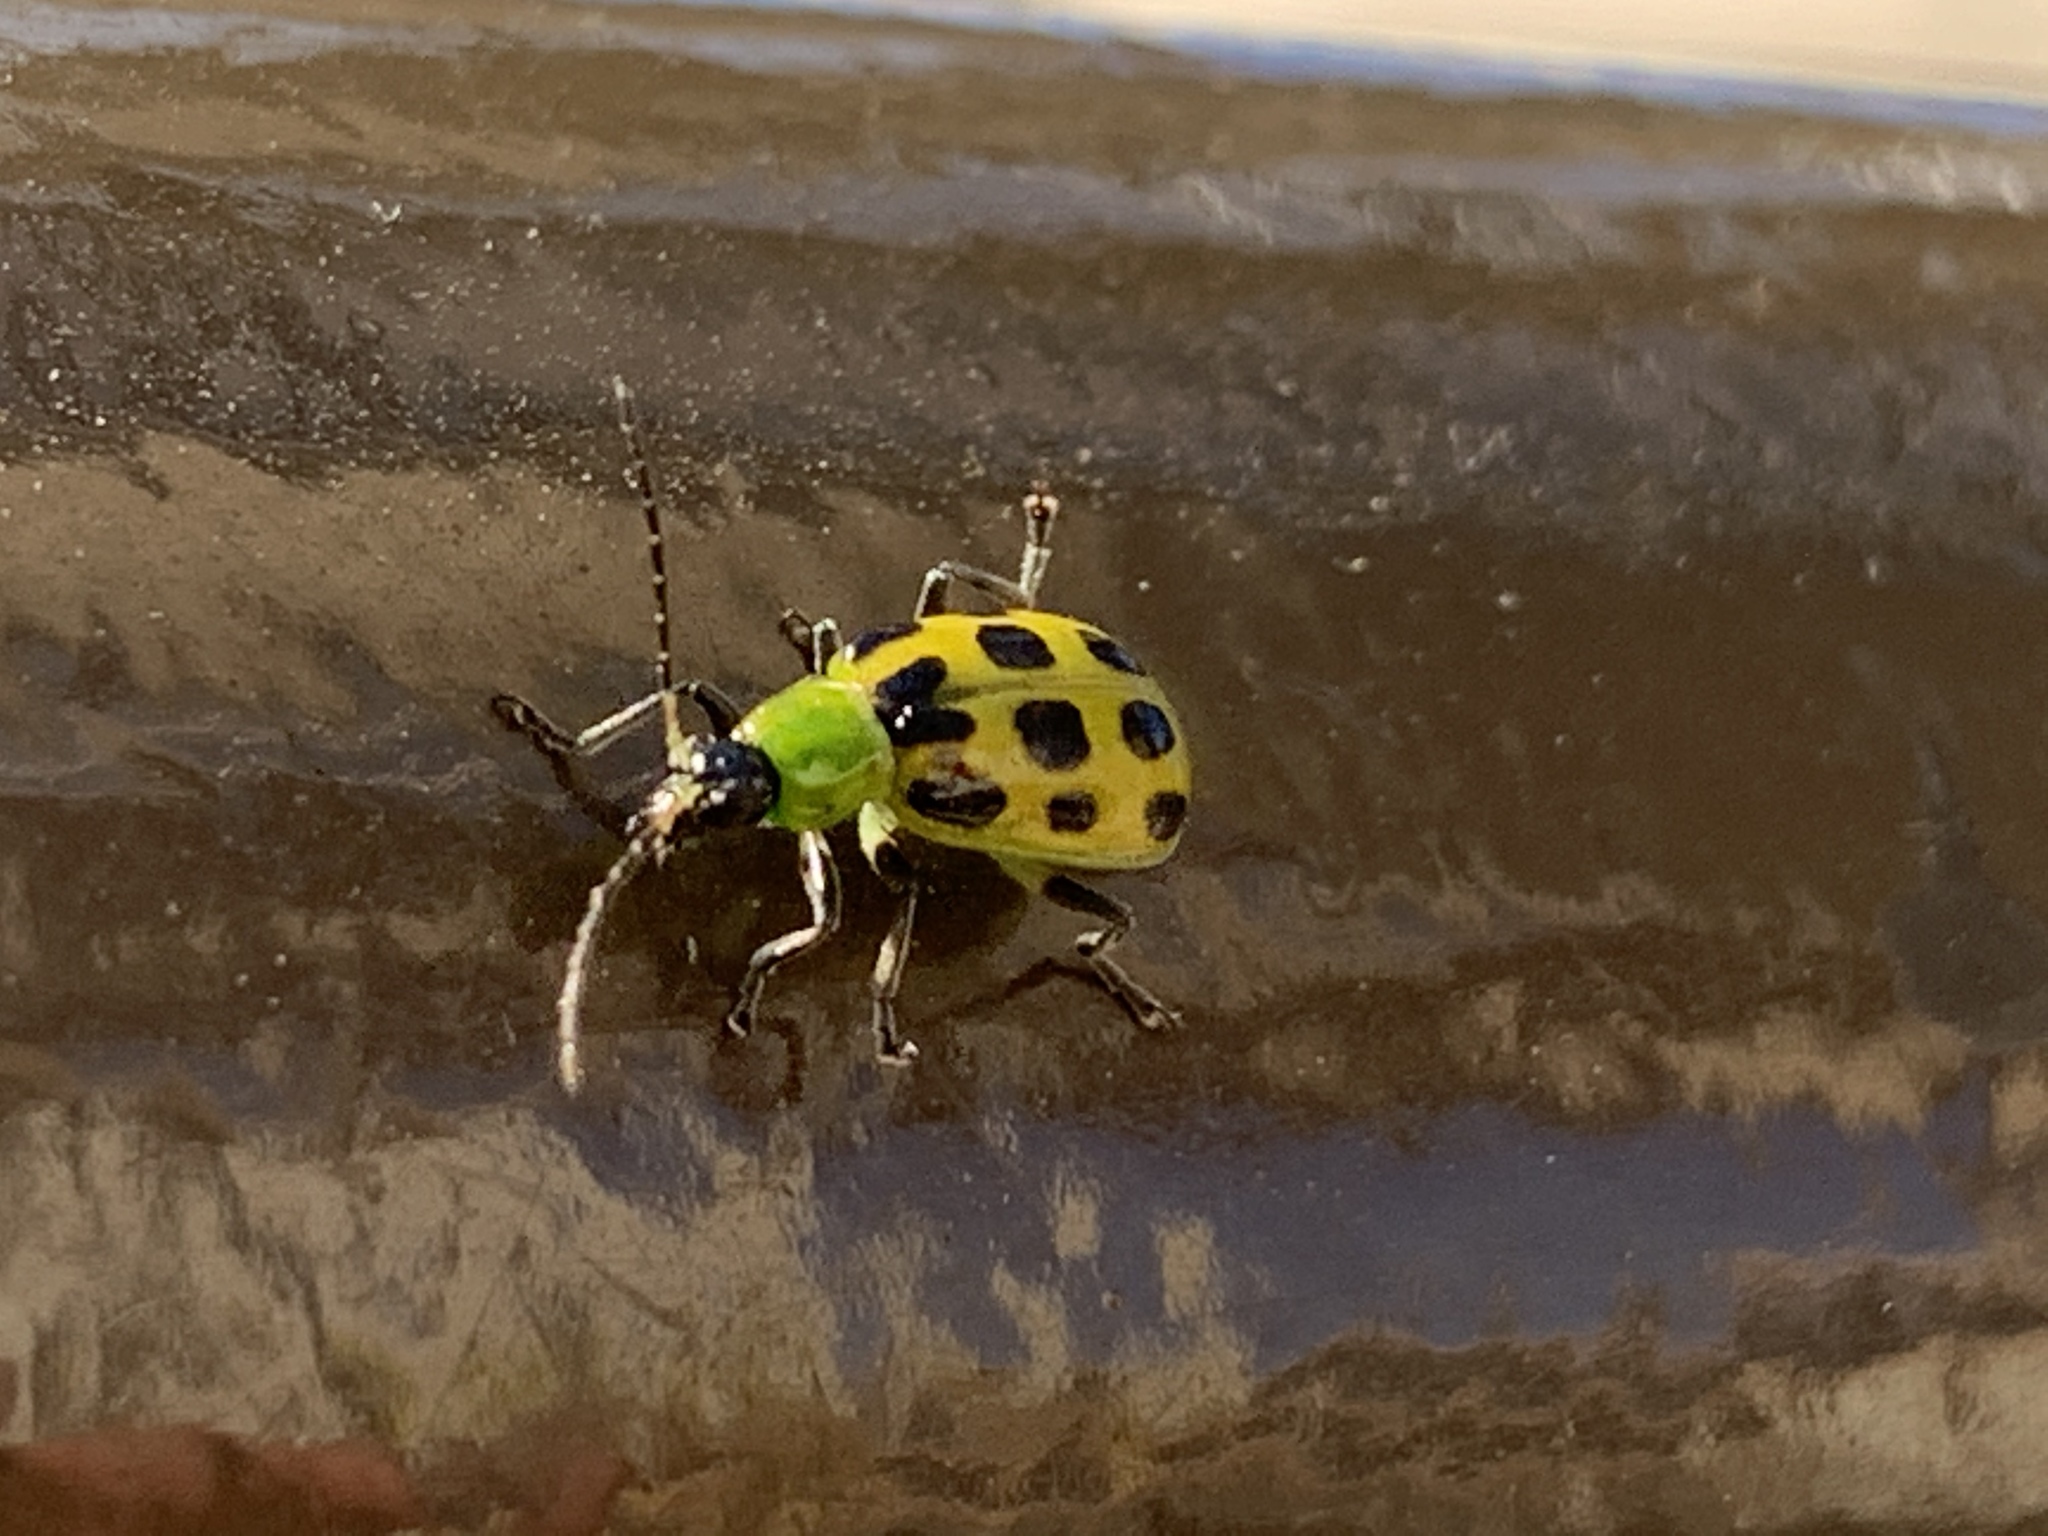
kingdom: Animalia
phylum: Arthropoda
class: Insecta
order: Coleoptera
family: Chrysomelidae
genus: Diabrotica
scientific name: Diabrotica undecimpunctata
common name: Spotted cucumber beetle
